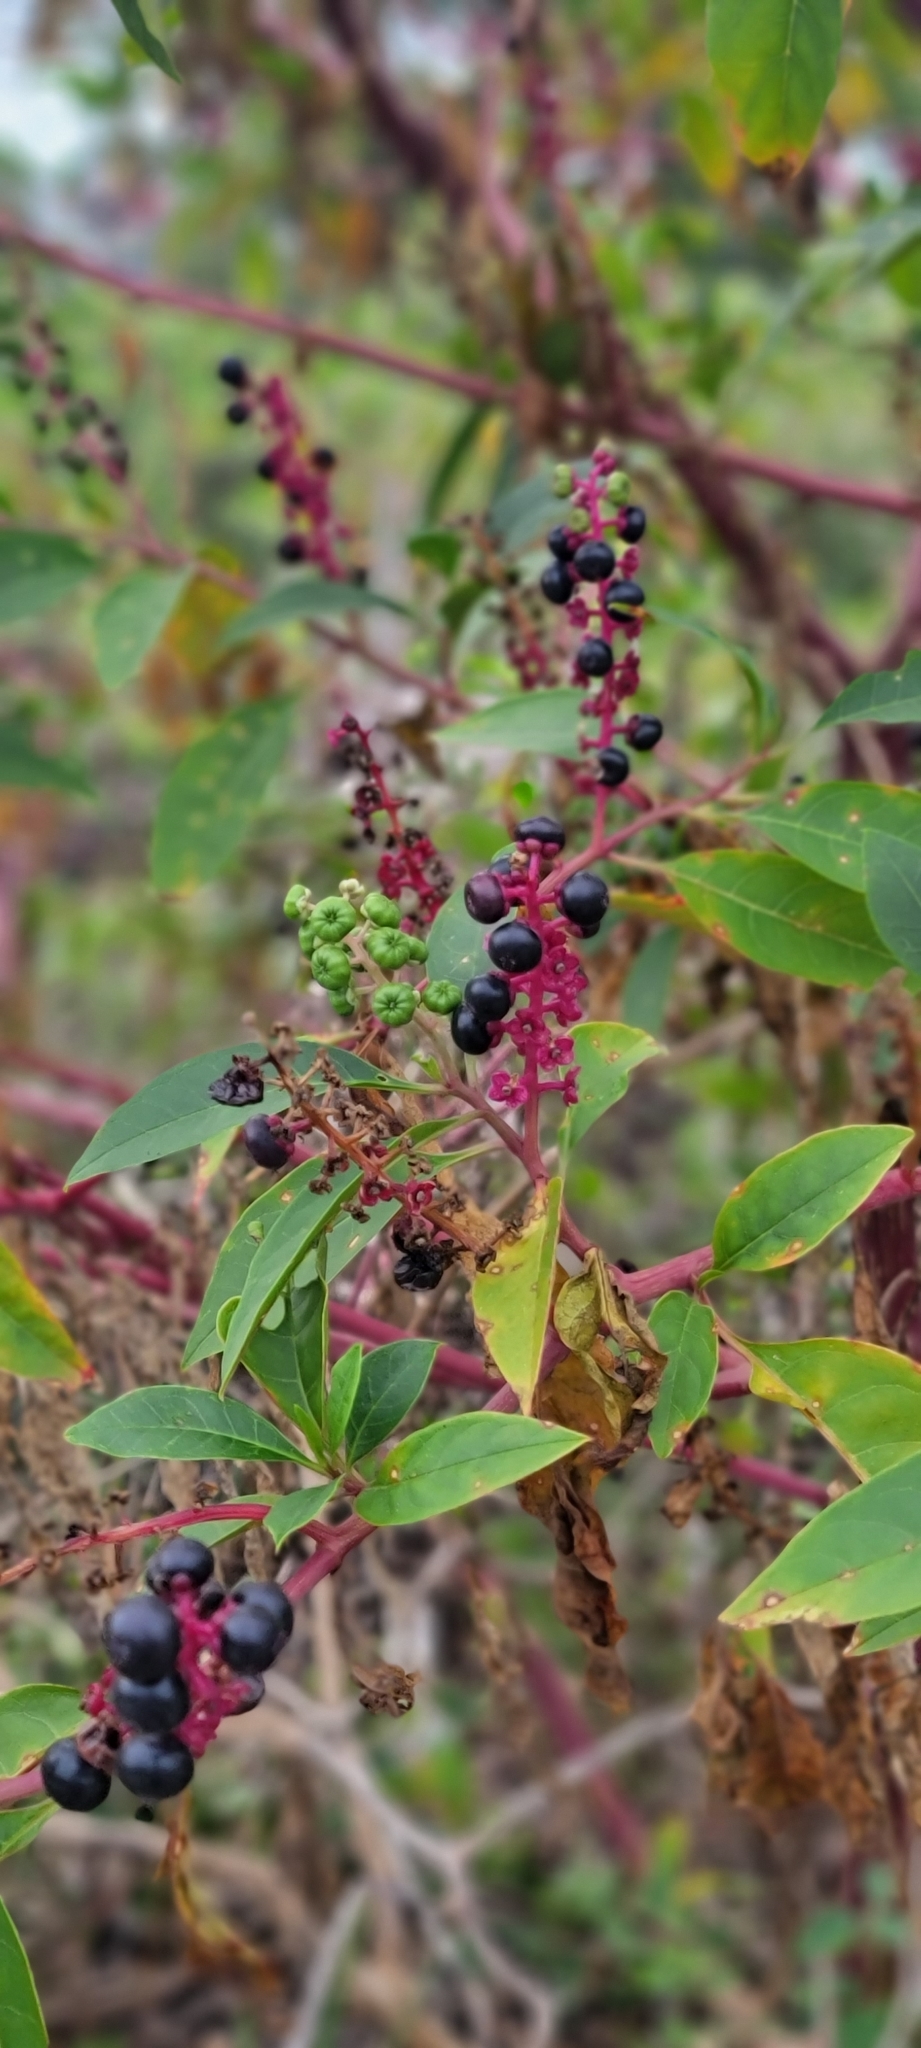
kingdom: Plantae
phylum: Tracheophyta
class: Magnoliopsida
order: Caryophyllales
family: Phytolaccaceae
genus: Phytolacca
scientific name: Phytolacca americana
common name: American pokeweed
